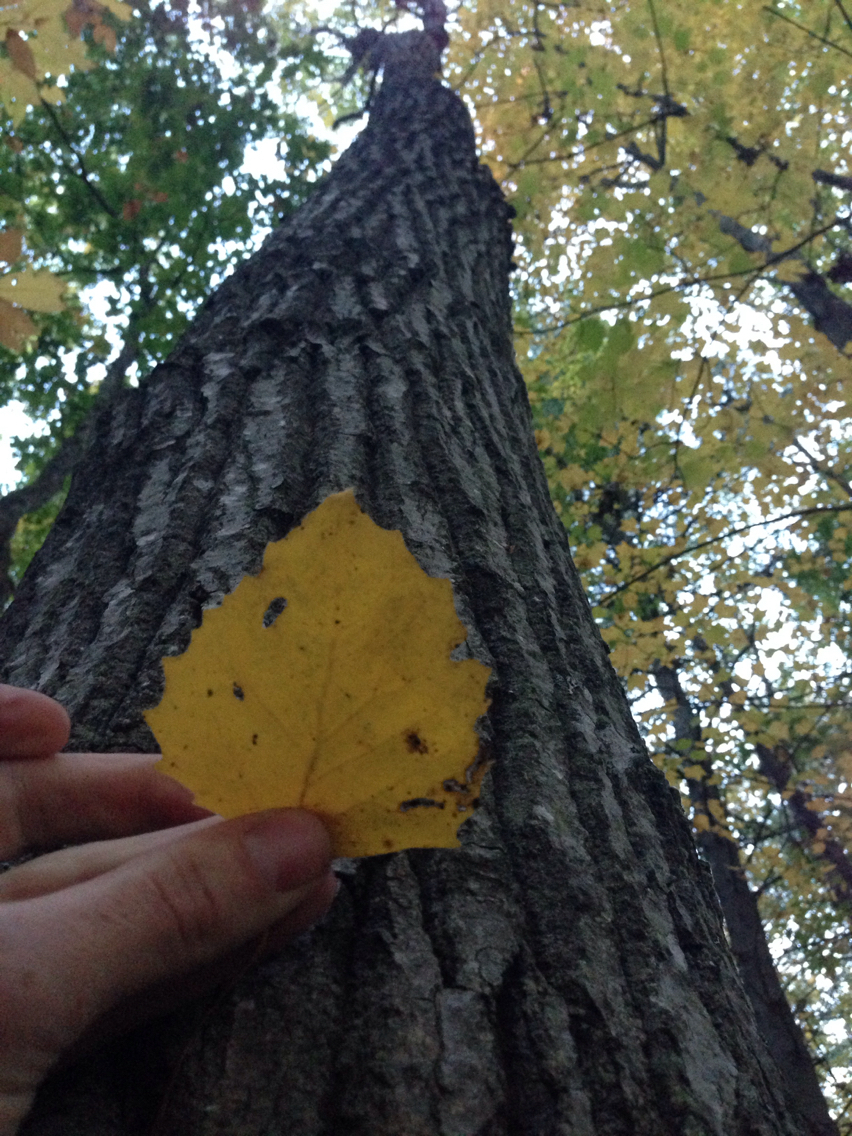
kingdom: Plantae
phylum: Tracheophyta
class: Magnoliopsida
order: Malpighiales
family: Salicaceae
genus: Populus
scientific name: Populus grandidentata
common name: Bigtooth aspen
